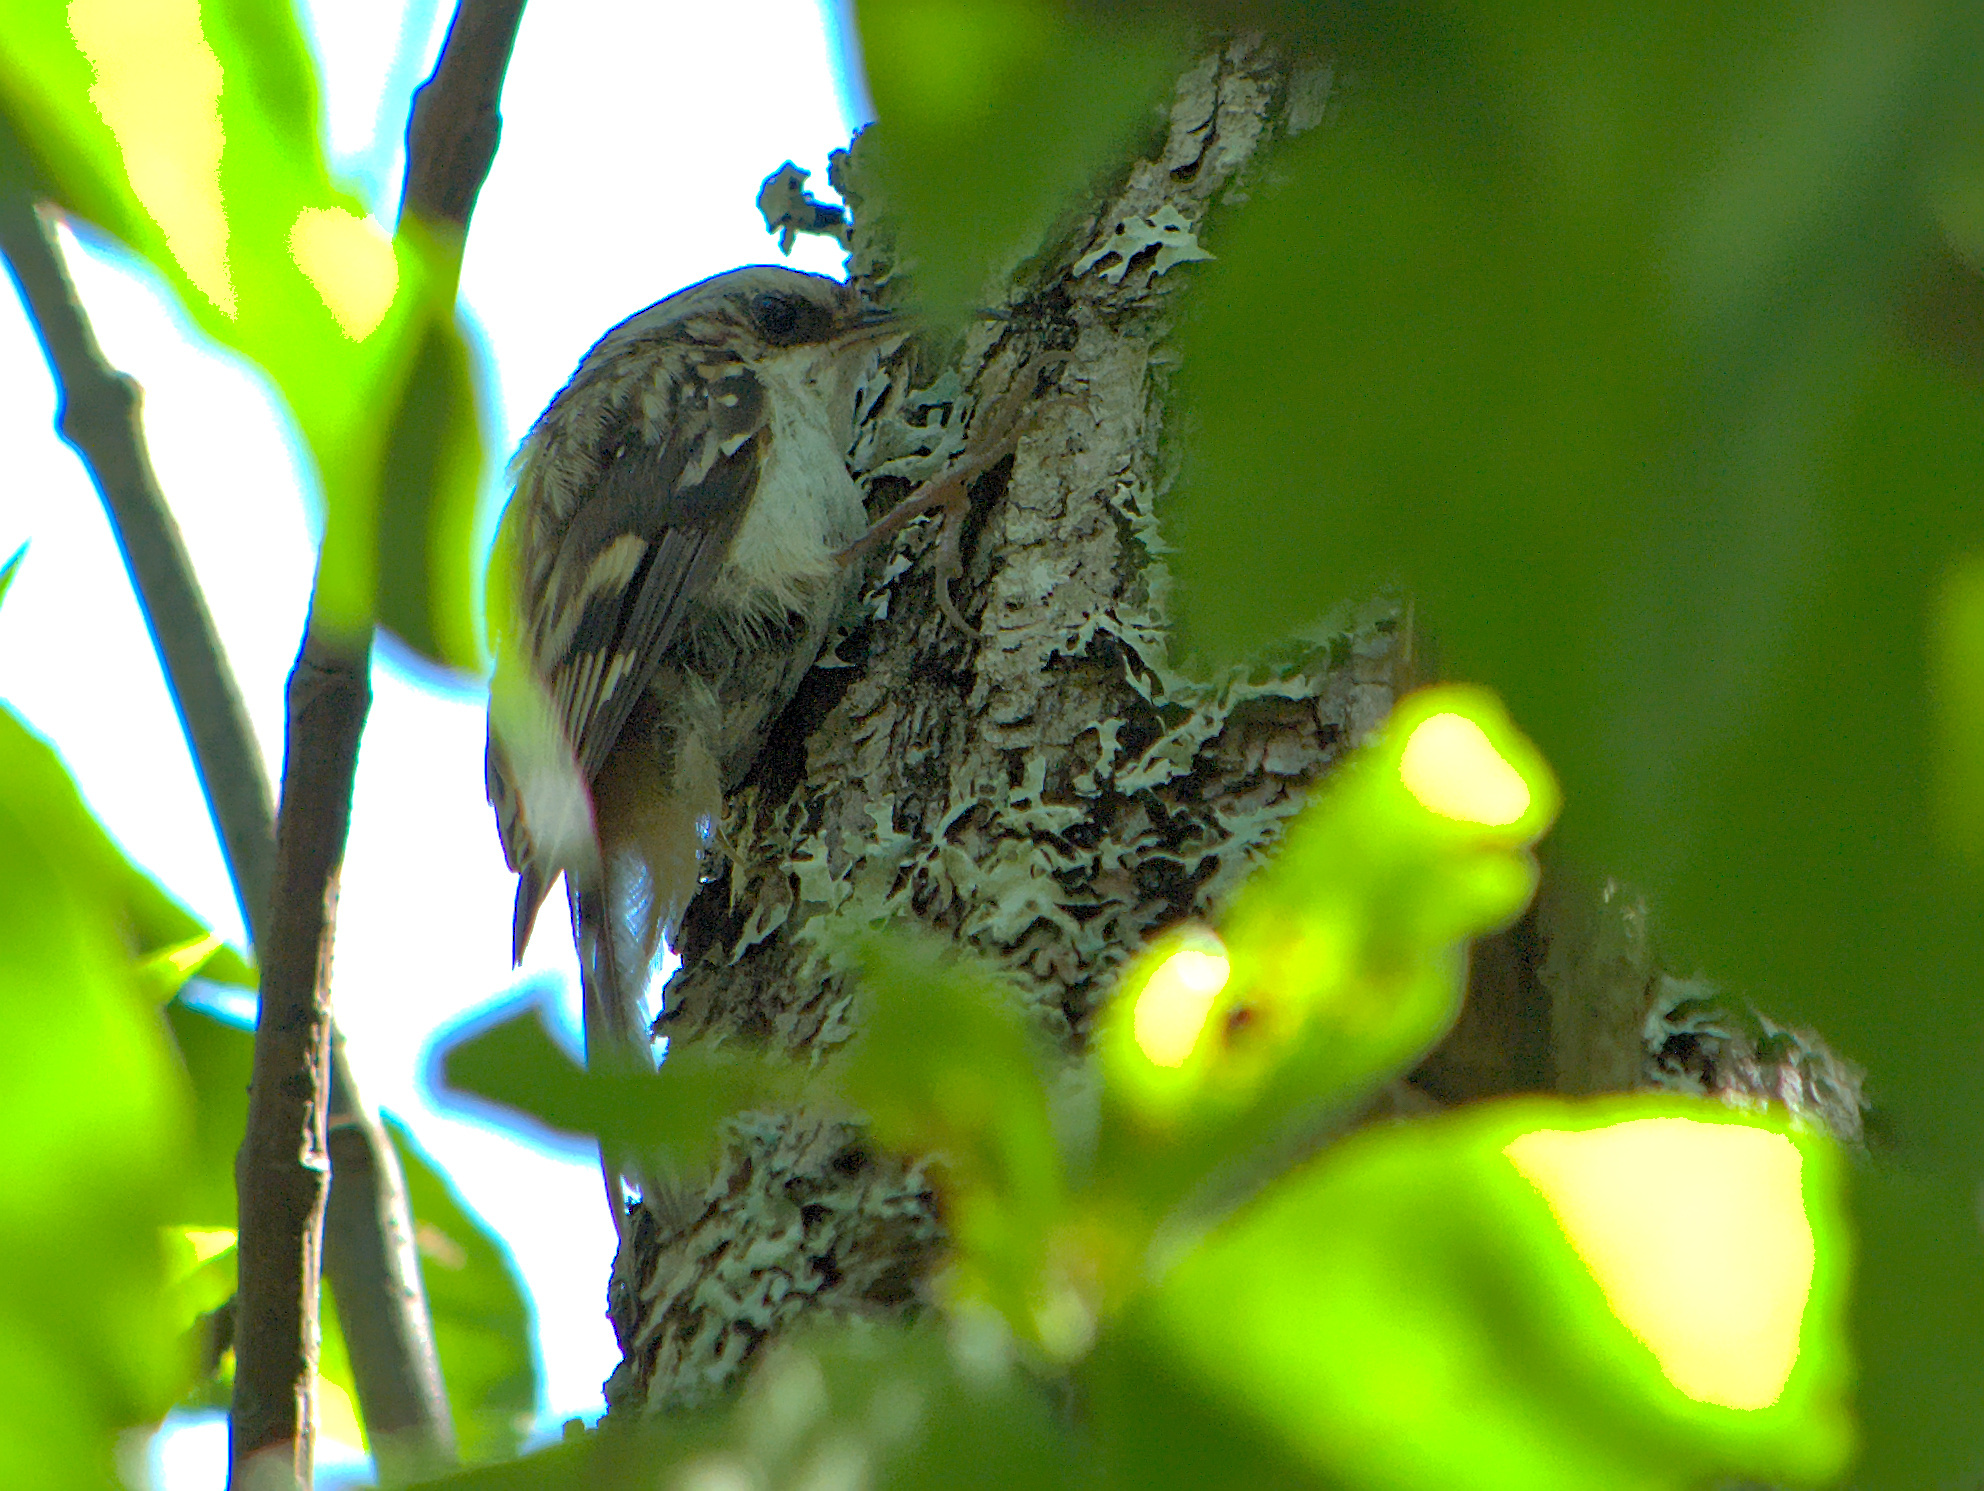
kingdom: Animalia
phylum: Chordata
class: Aves
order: Passeriformes
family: Certhiidae
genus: Certhia
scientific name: Certhia americana
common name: Brown creeper
